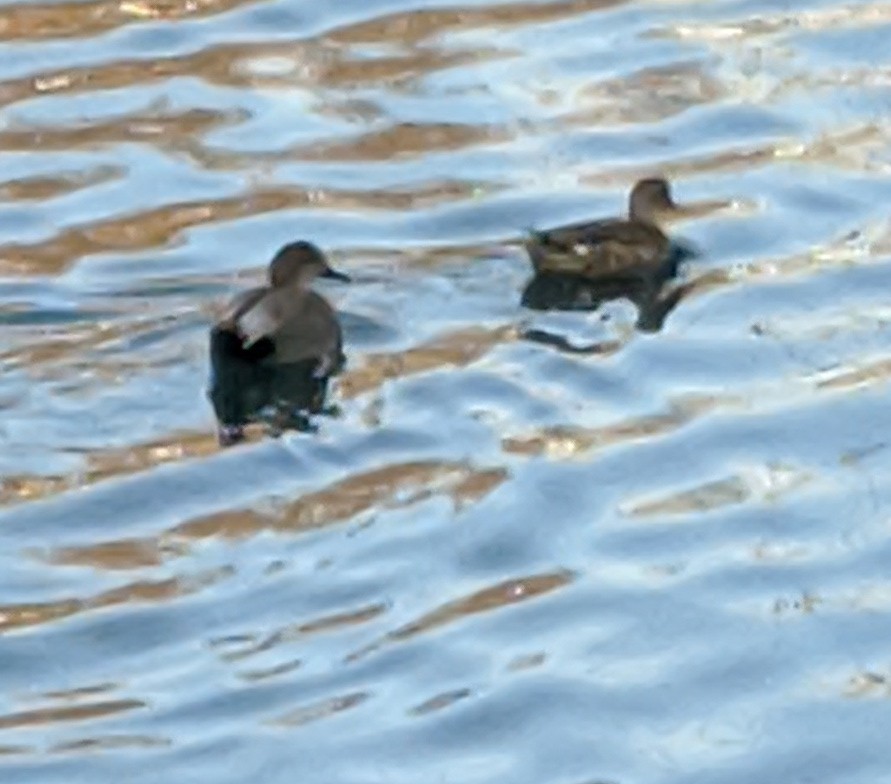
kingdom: Animalia
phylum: Chordata
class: Aves
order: Anseriformes
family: Anatidae
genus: Mareca
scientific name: Mareca strepera
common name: Gadwall
